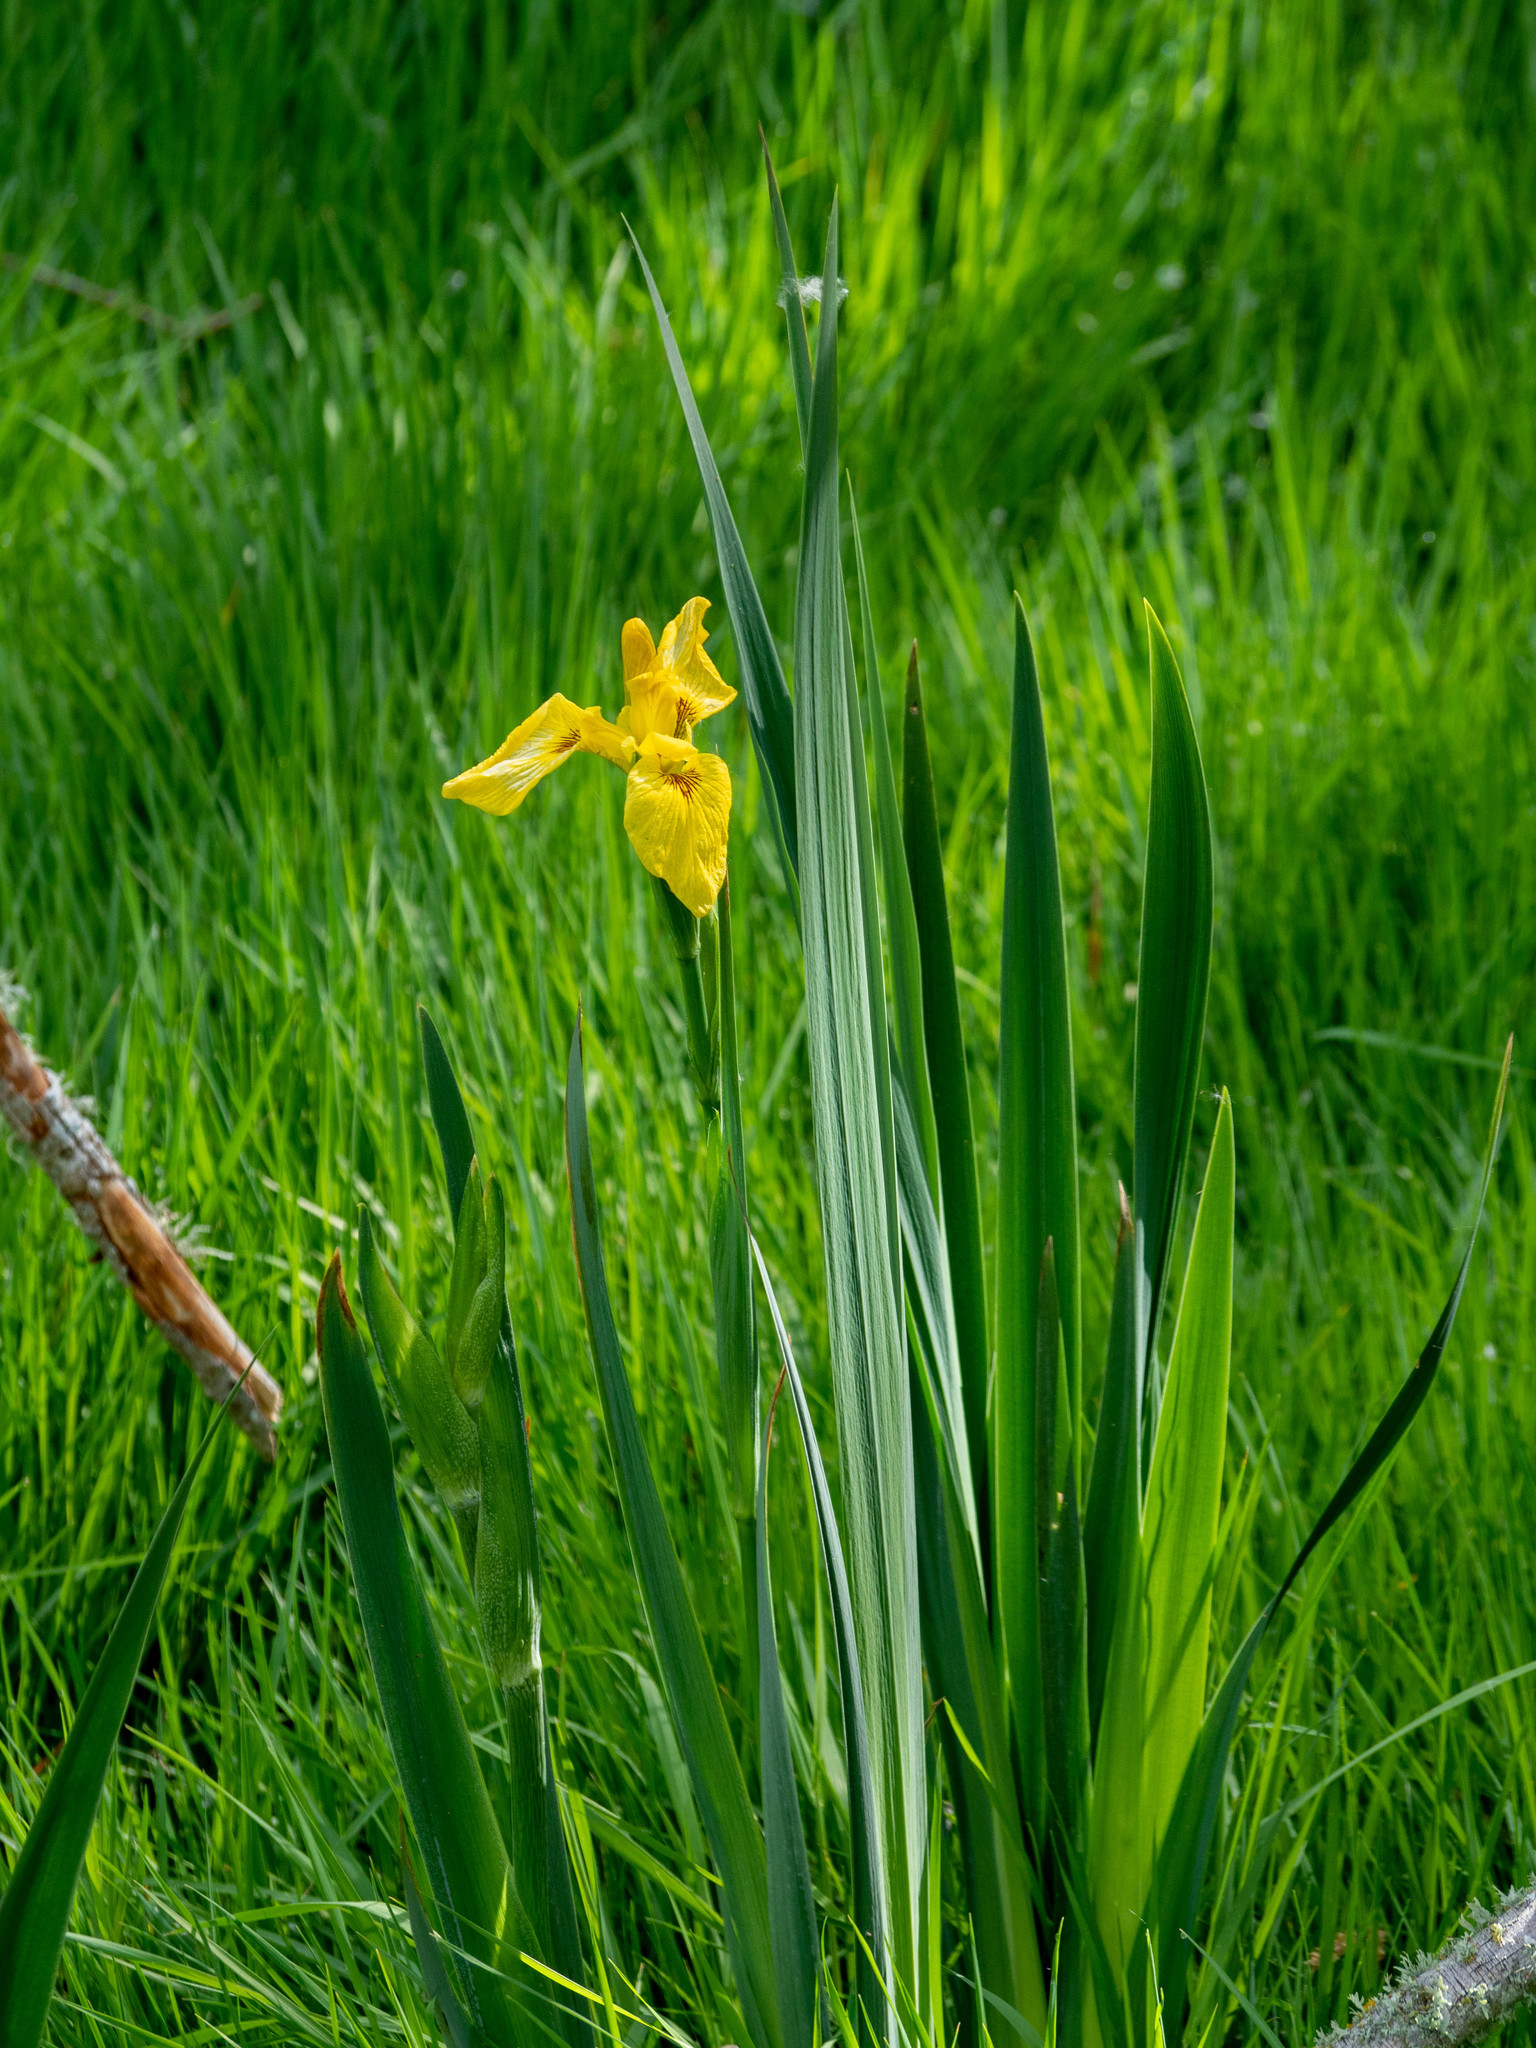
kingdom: Plantae
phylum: Tracheophyta
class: Liliopsida
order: Asparagales
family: Iridaceae
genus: Iris
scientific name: Iris pseudacorus
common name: Yellow flag
